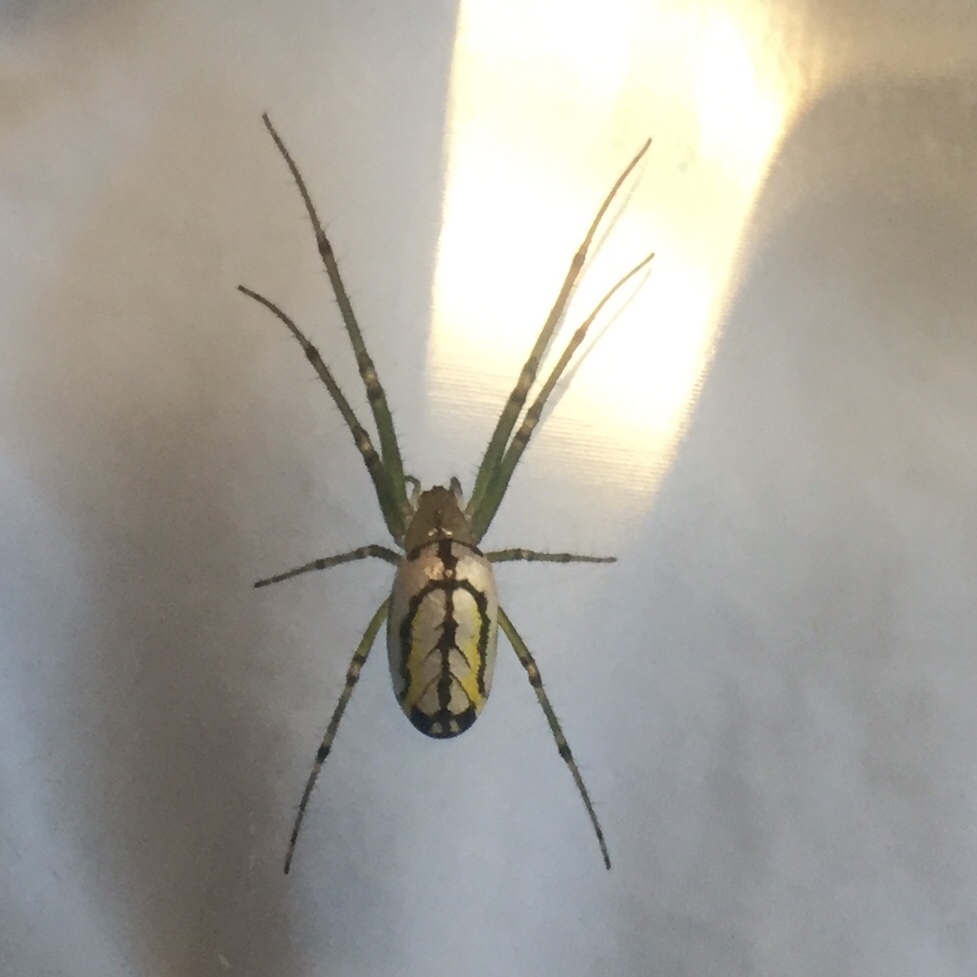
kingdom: Animalia
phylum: Arthropoda
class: Arachnida
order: Araneae
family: Tetragnathidae
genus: Leucauge
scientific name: Leucauge venusta
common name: Longjawed orb weavers
